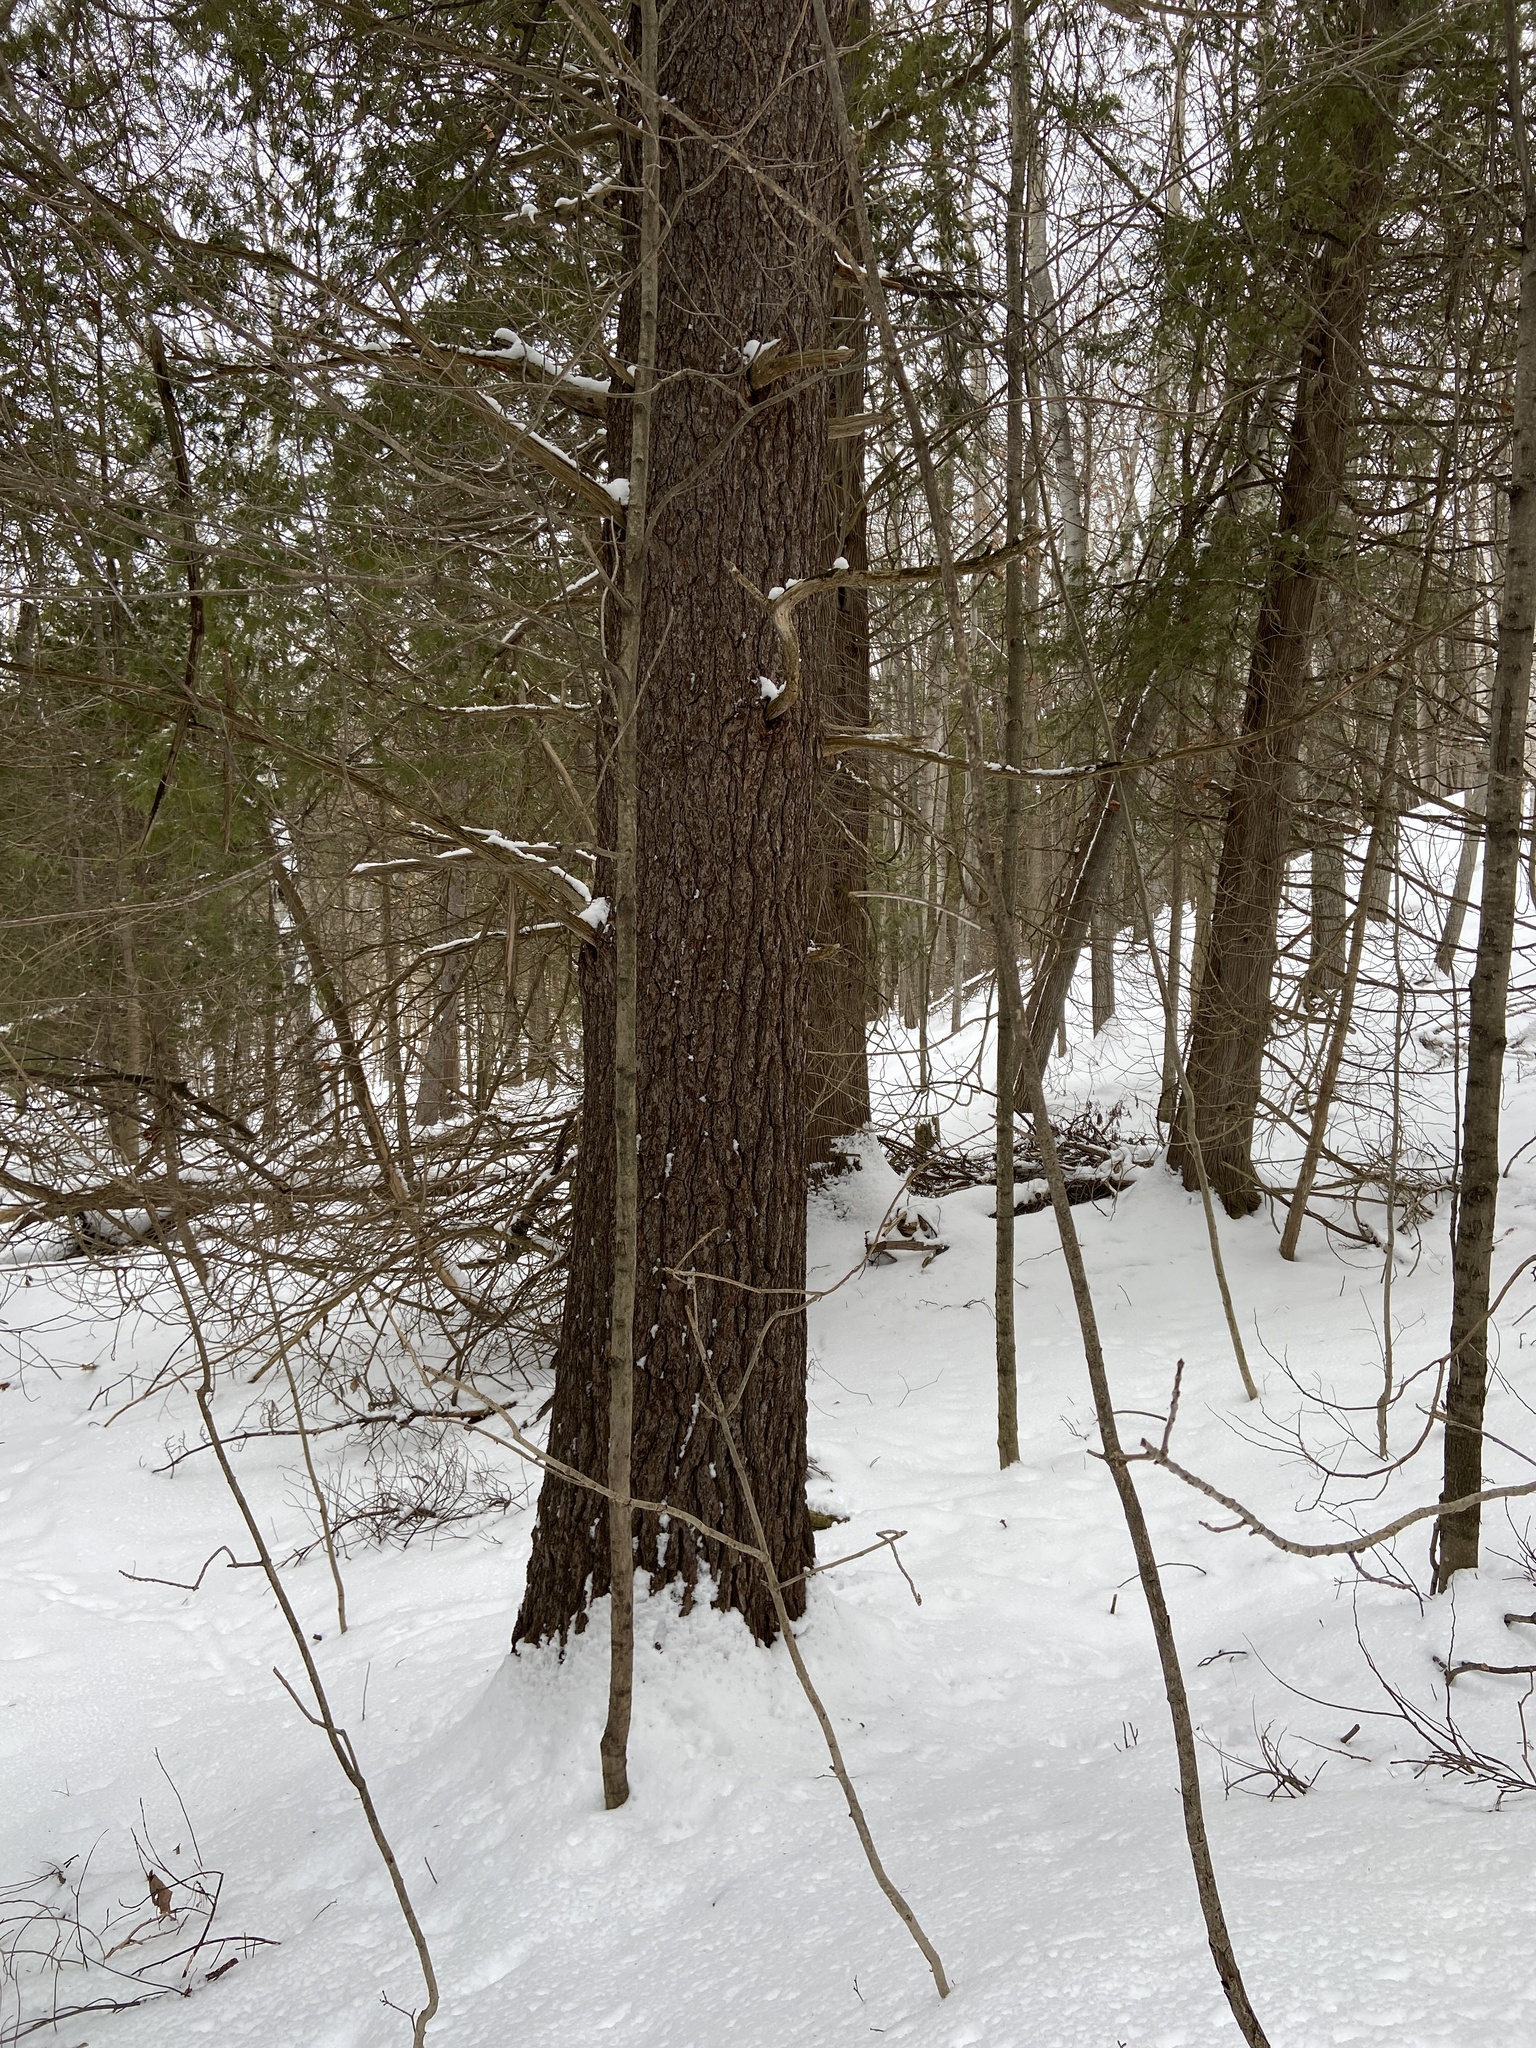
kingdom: Plantae
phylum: Tracheophyta
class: Pinopsida
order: Pinales
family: Pinaceae
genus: Pinus
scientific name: Pinus strobus
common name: Weymouth pine
